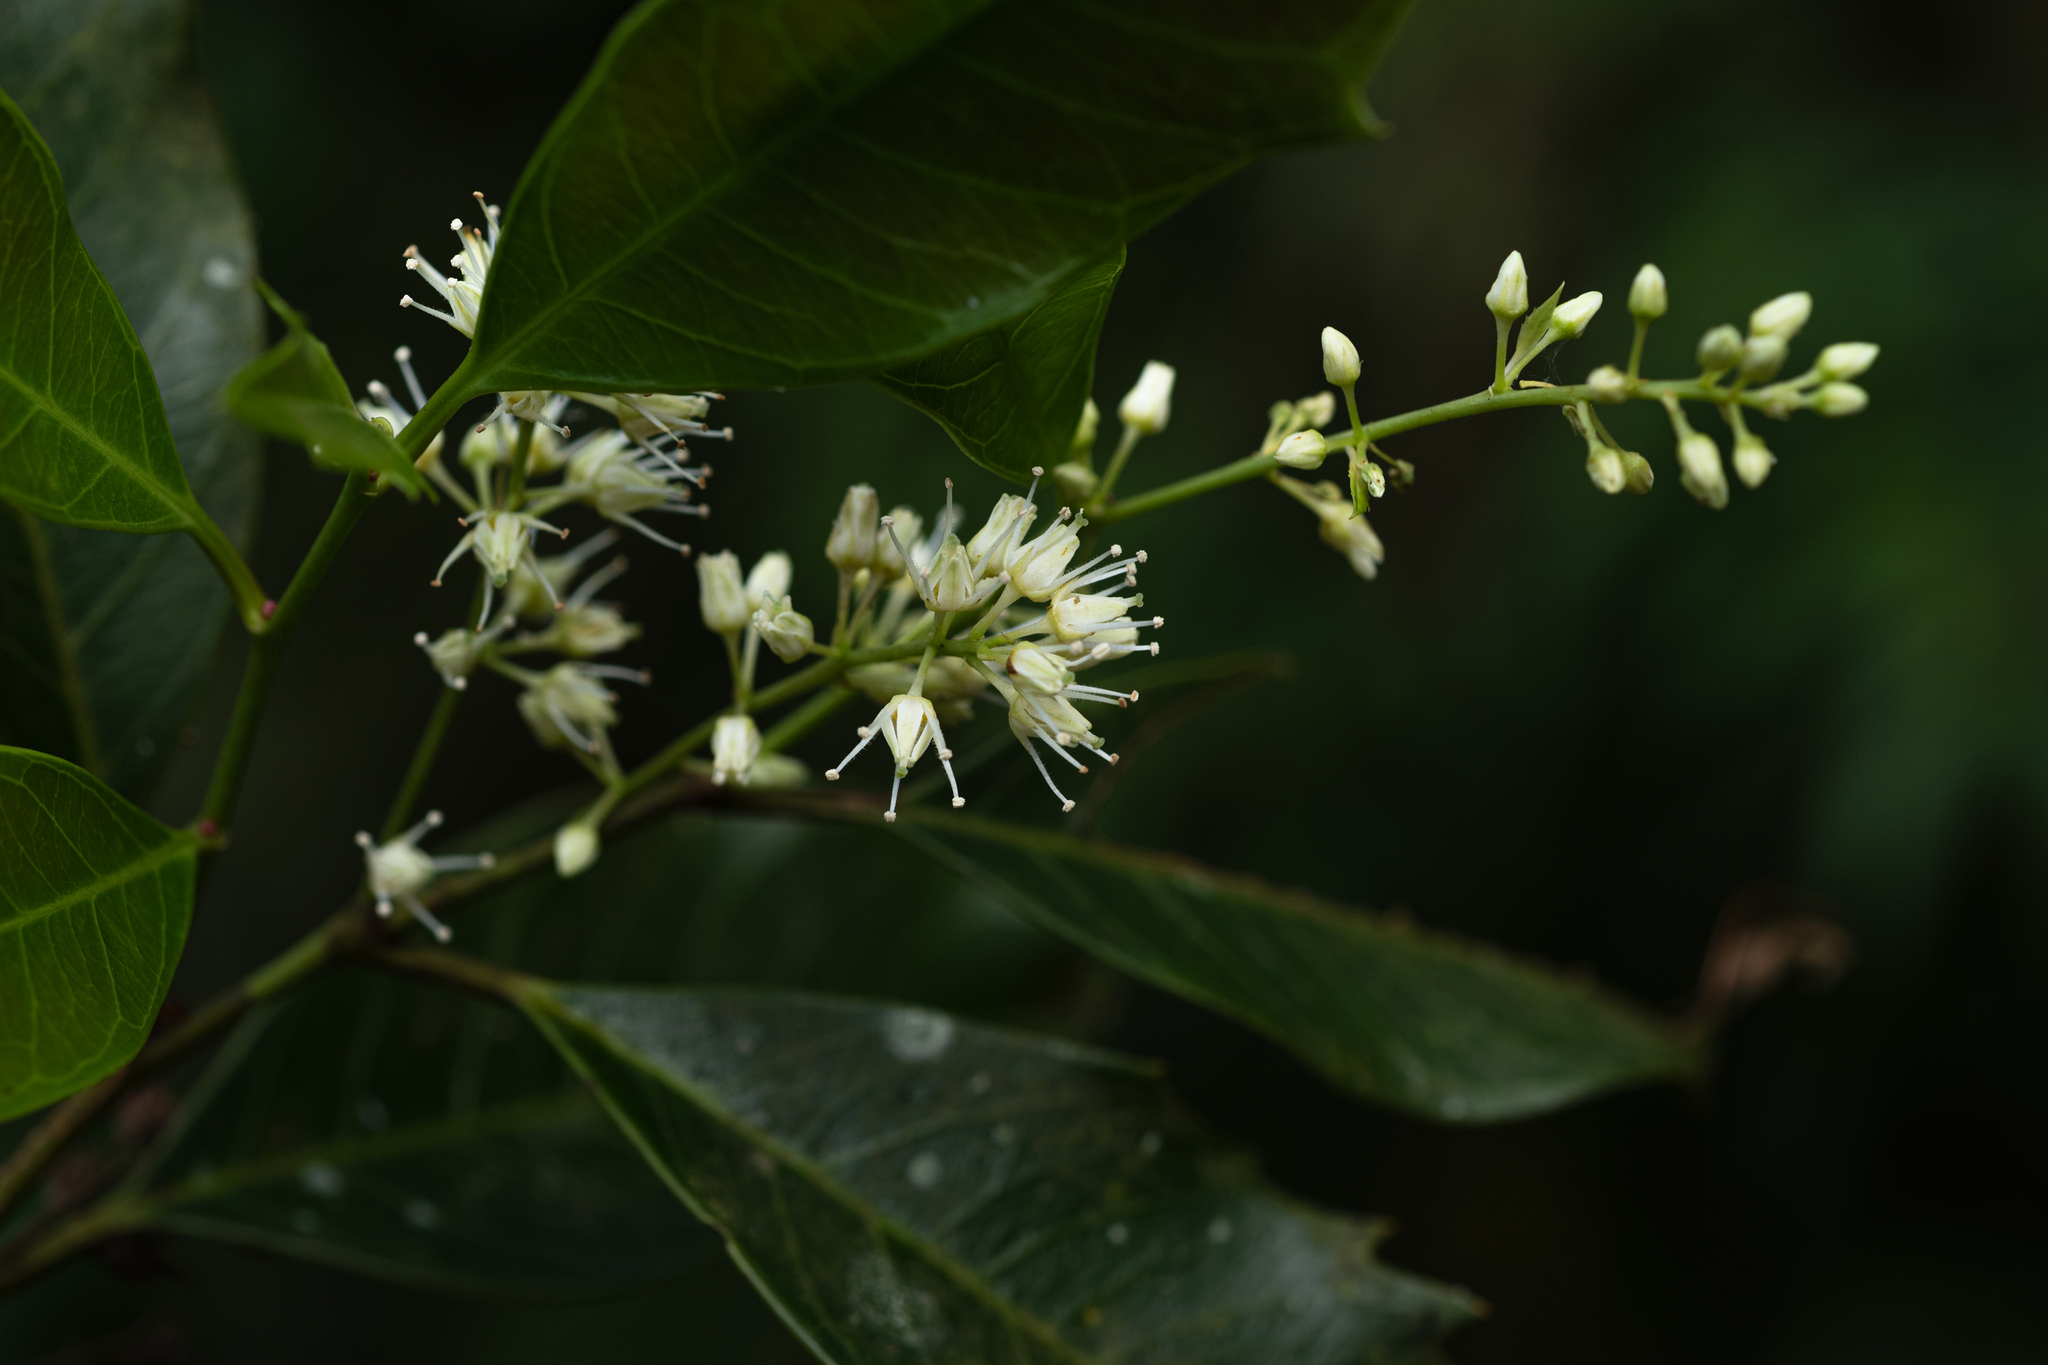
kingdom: Plantae
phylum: Tracheophyta
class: Magnoliopsida
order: Saxifragales
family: Iteaceae
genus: Itea
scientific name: Itea oldhamii
